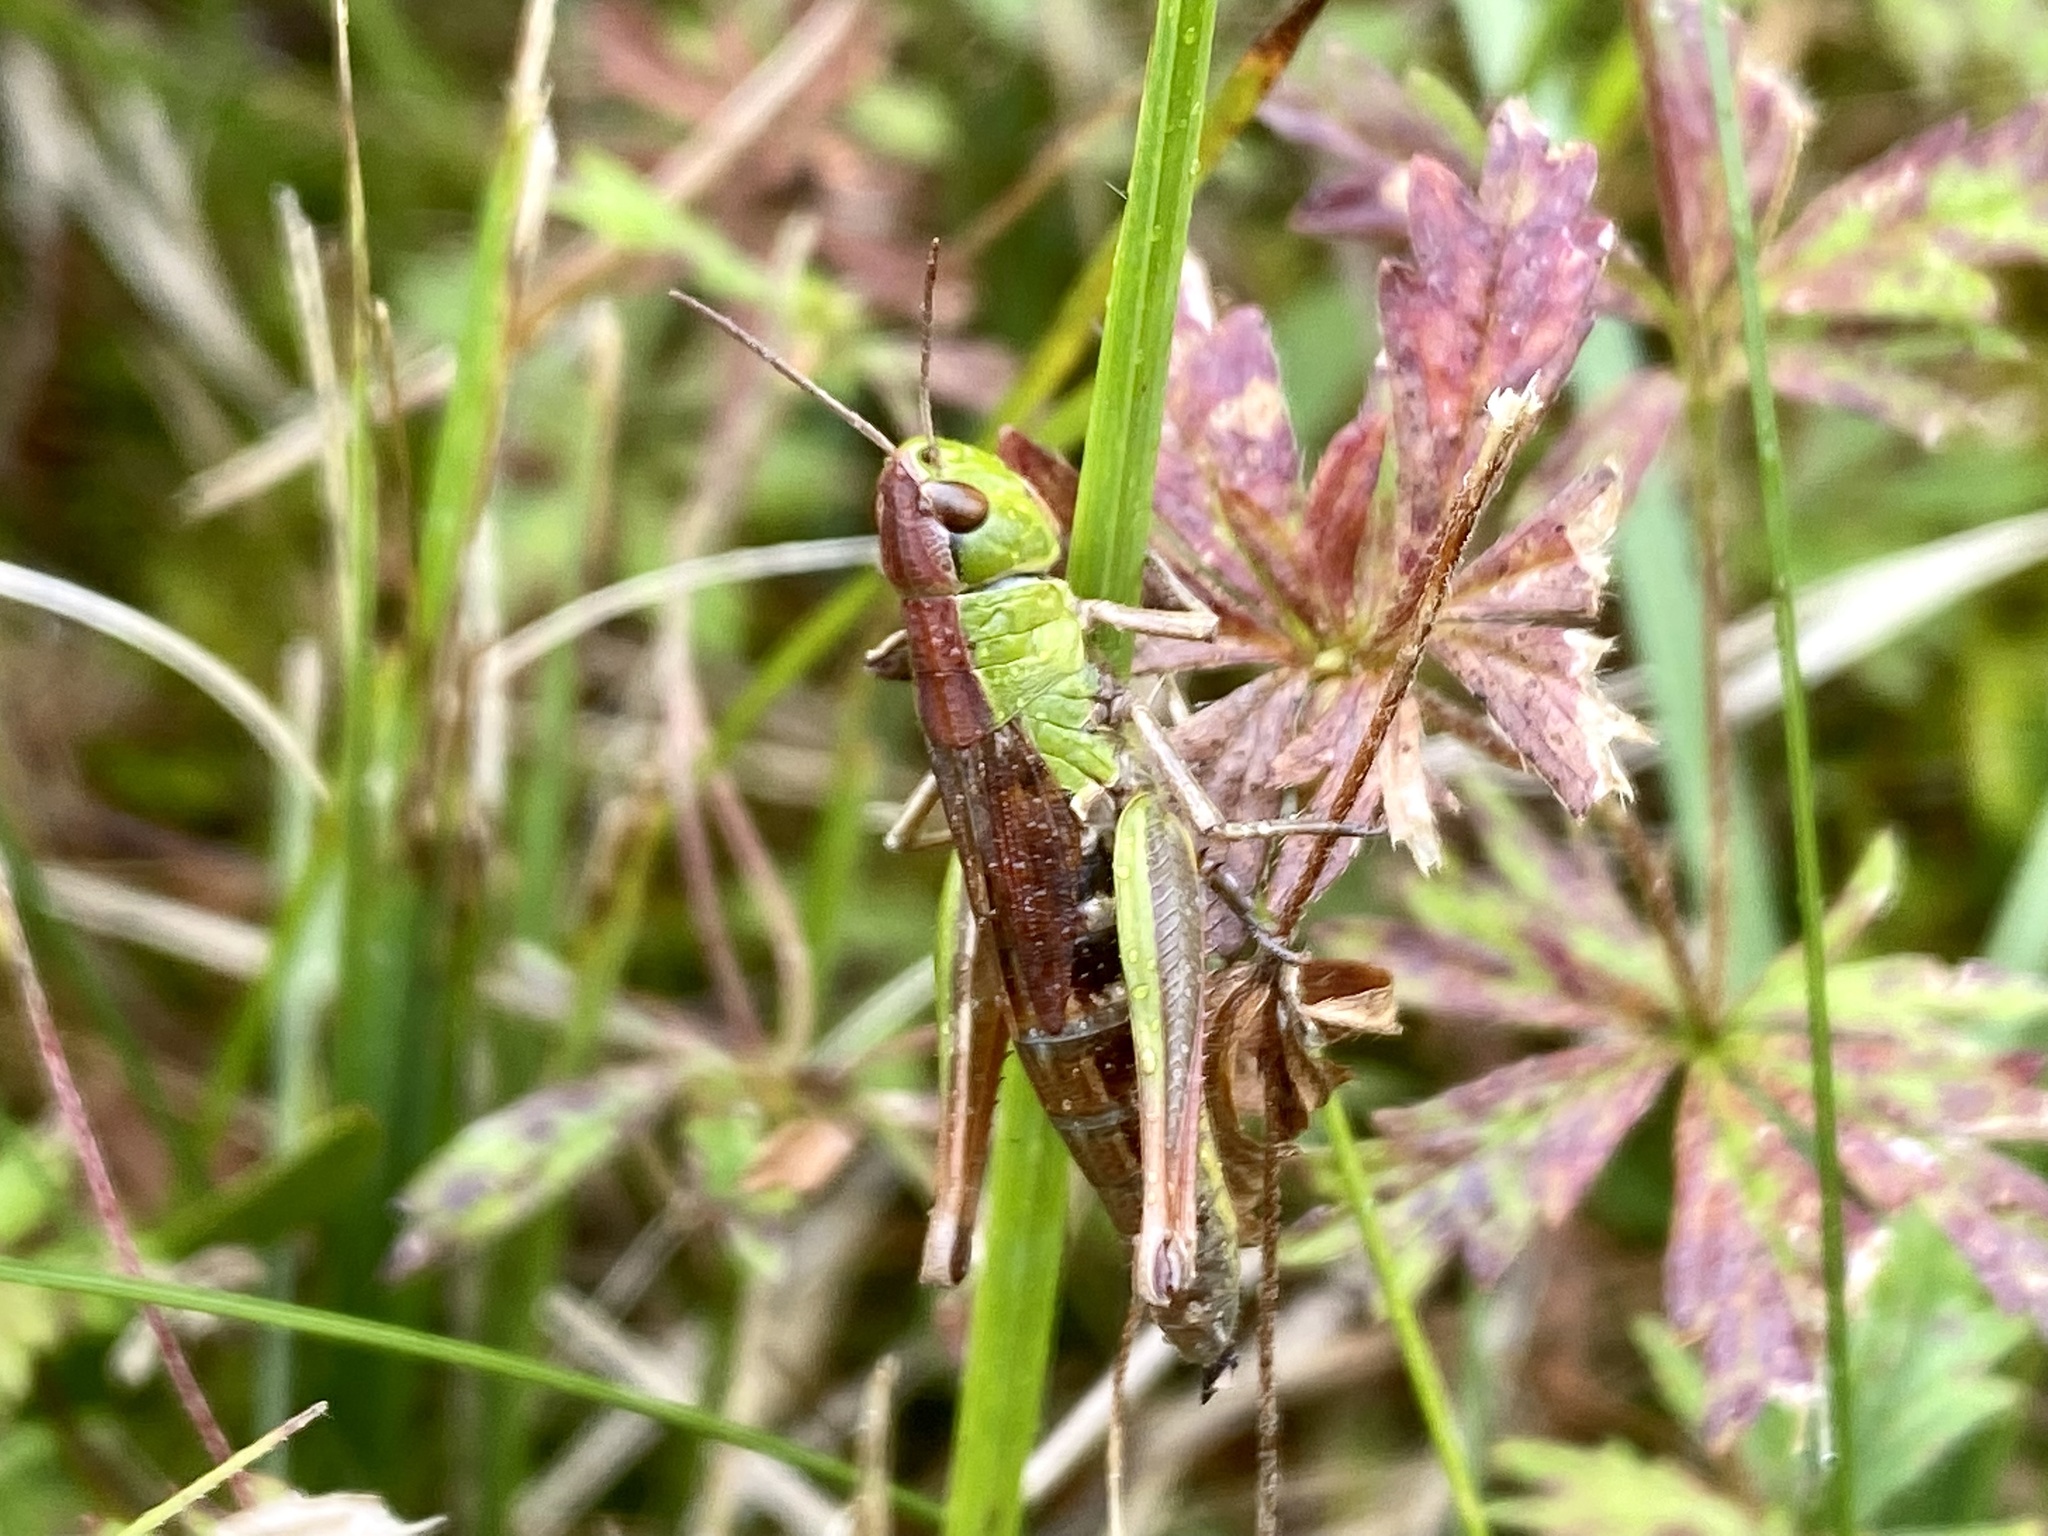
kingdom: Animalia
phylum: Arthropoda
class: Insecta
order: Orthoptera
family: Acrididae
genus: Pseudochorthippus
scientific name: Pseudochorthippus parallelus
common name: Meadow grasshopper
